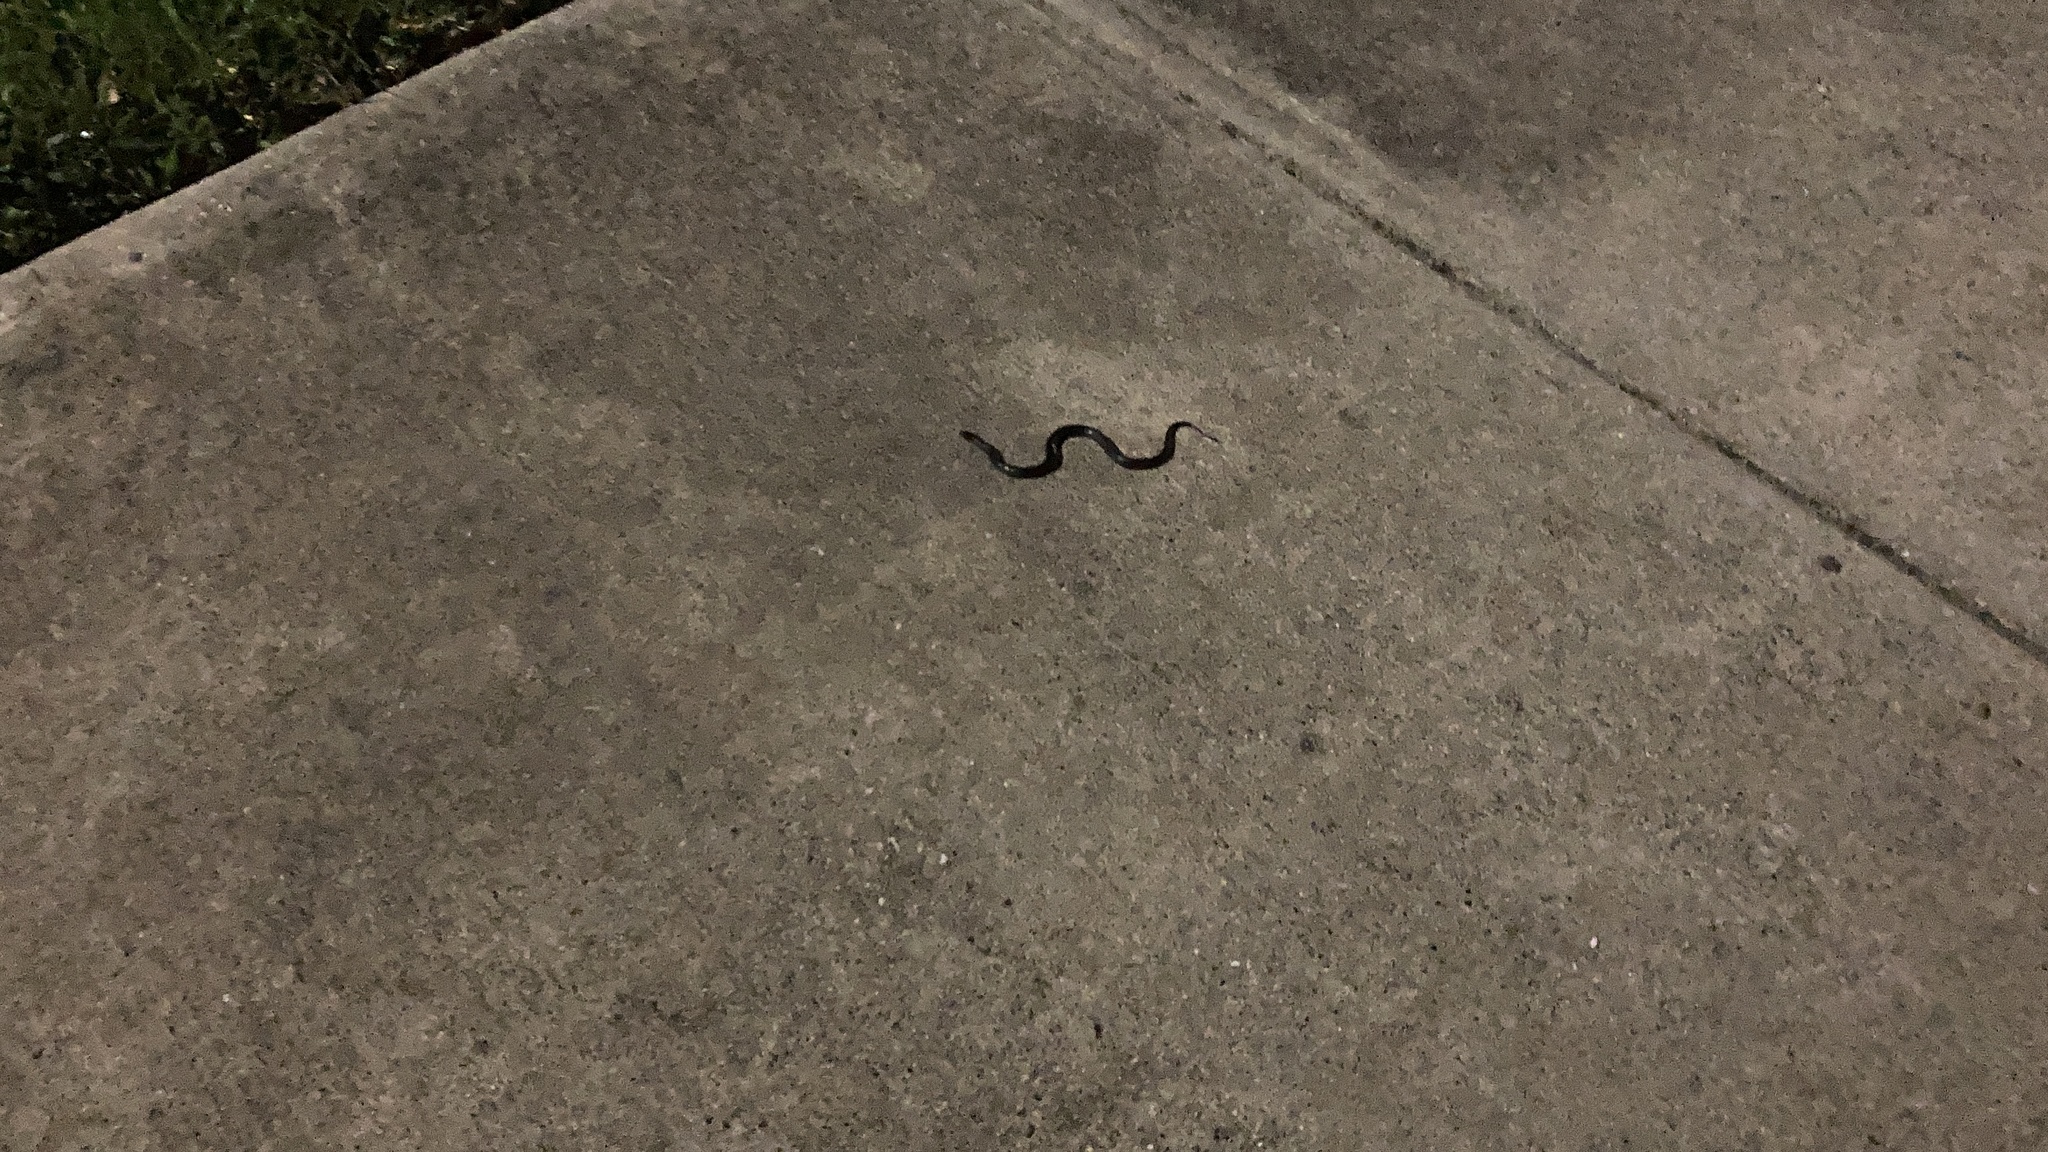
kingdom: Animalia
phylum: Chordata
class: Squamata
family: Colubridae
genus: Liodytes
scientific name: Liodytes pygaea
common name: Black swamp snake
